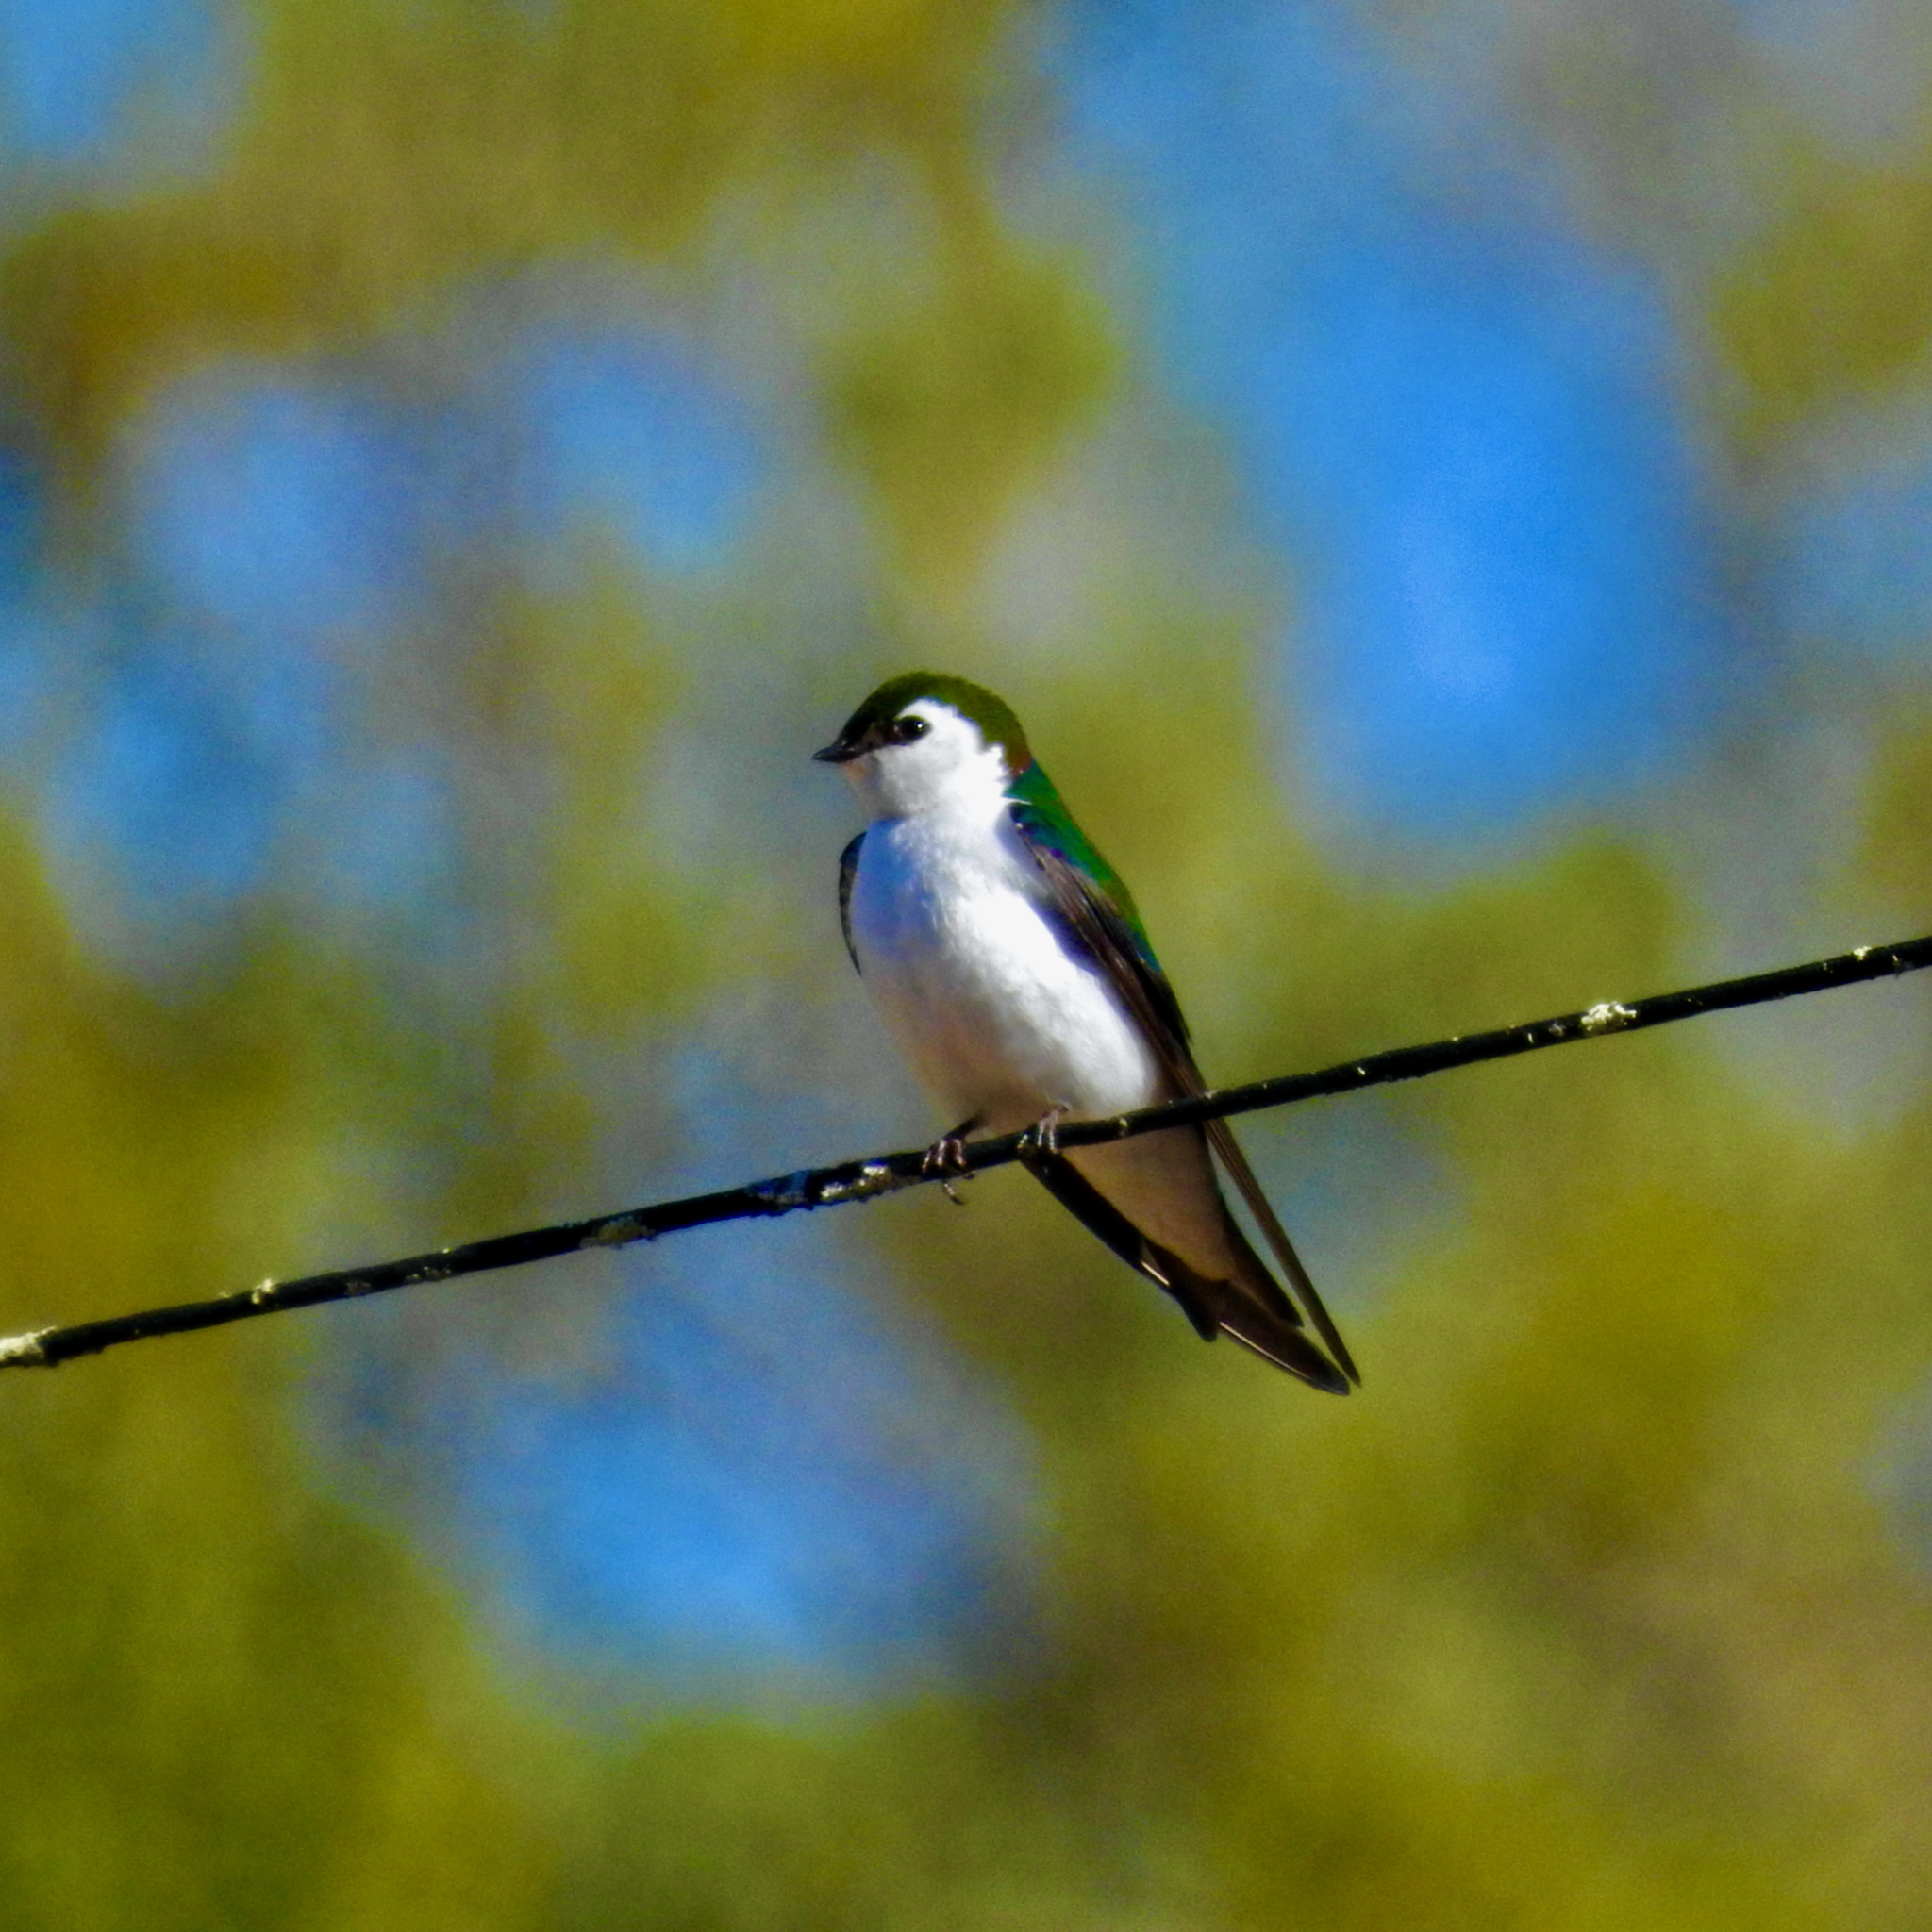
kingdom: Animalia
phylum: Chordata
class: Aves
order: Passeriformes
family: Hirundinidae
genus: Tachycineta
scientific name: Tachycineta thalassina
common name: Violet-green swallow
